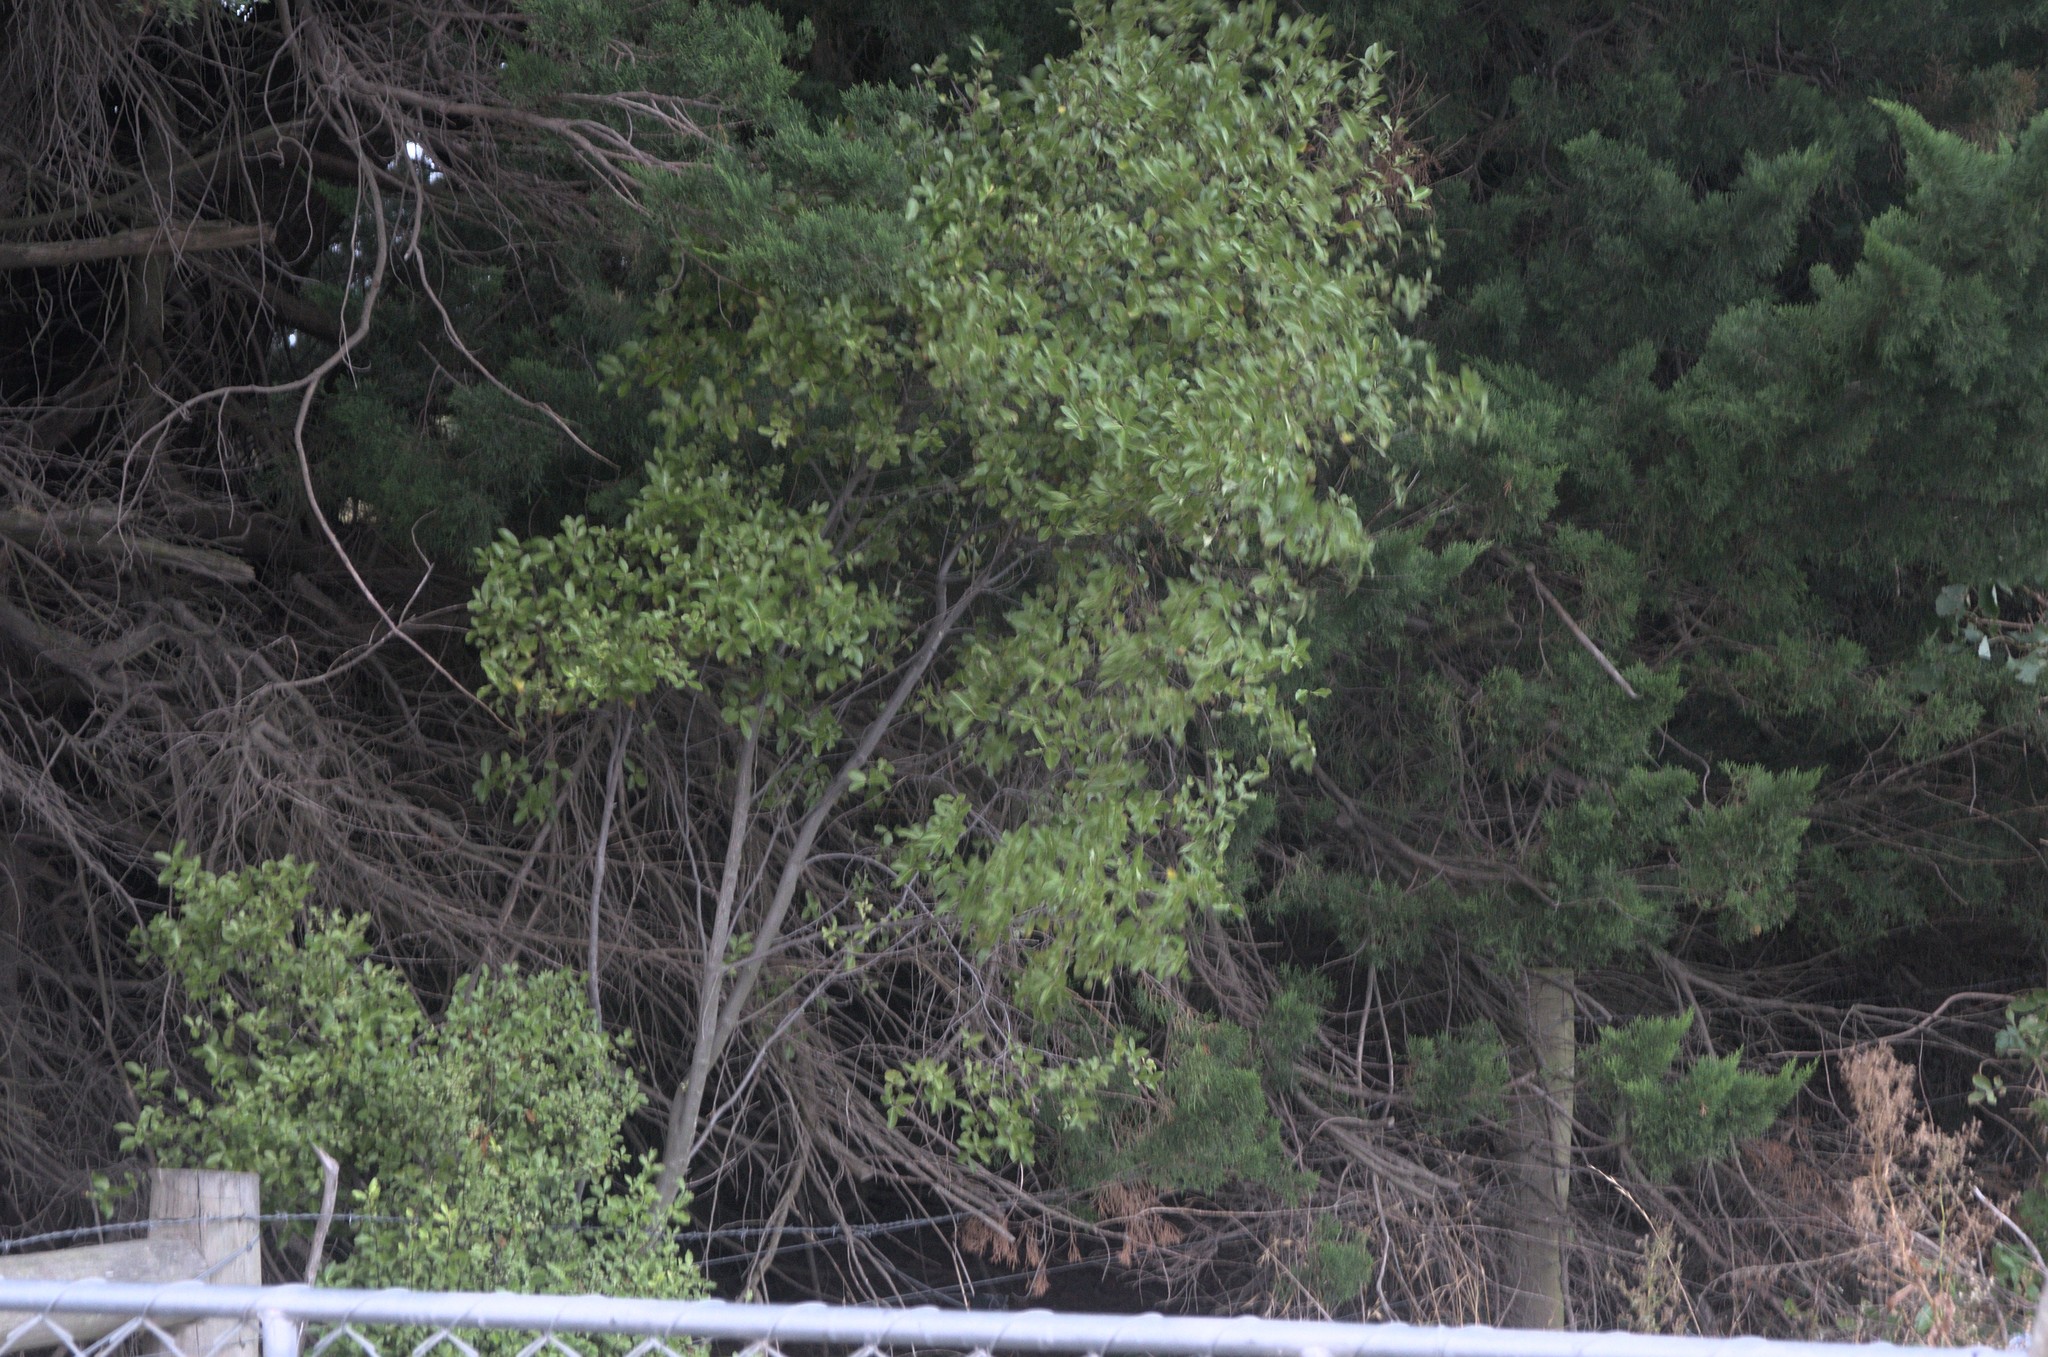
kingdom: Plantae
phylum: Tracheophyta
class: Magnoliopsida
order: Apiales
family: Pittosporaceae
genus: Pittosporum
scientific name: Pittosporum tenuifolium
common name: Kohuhu
